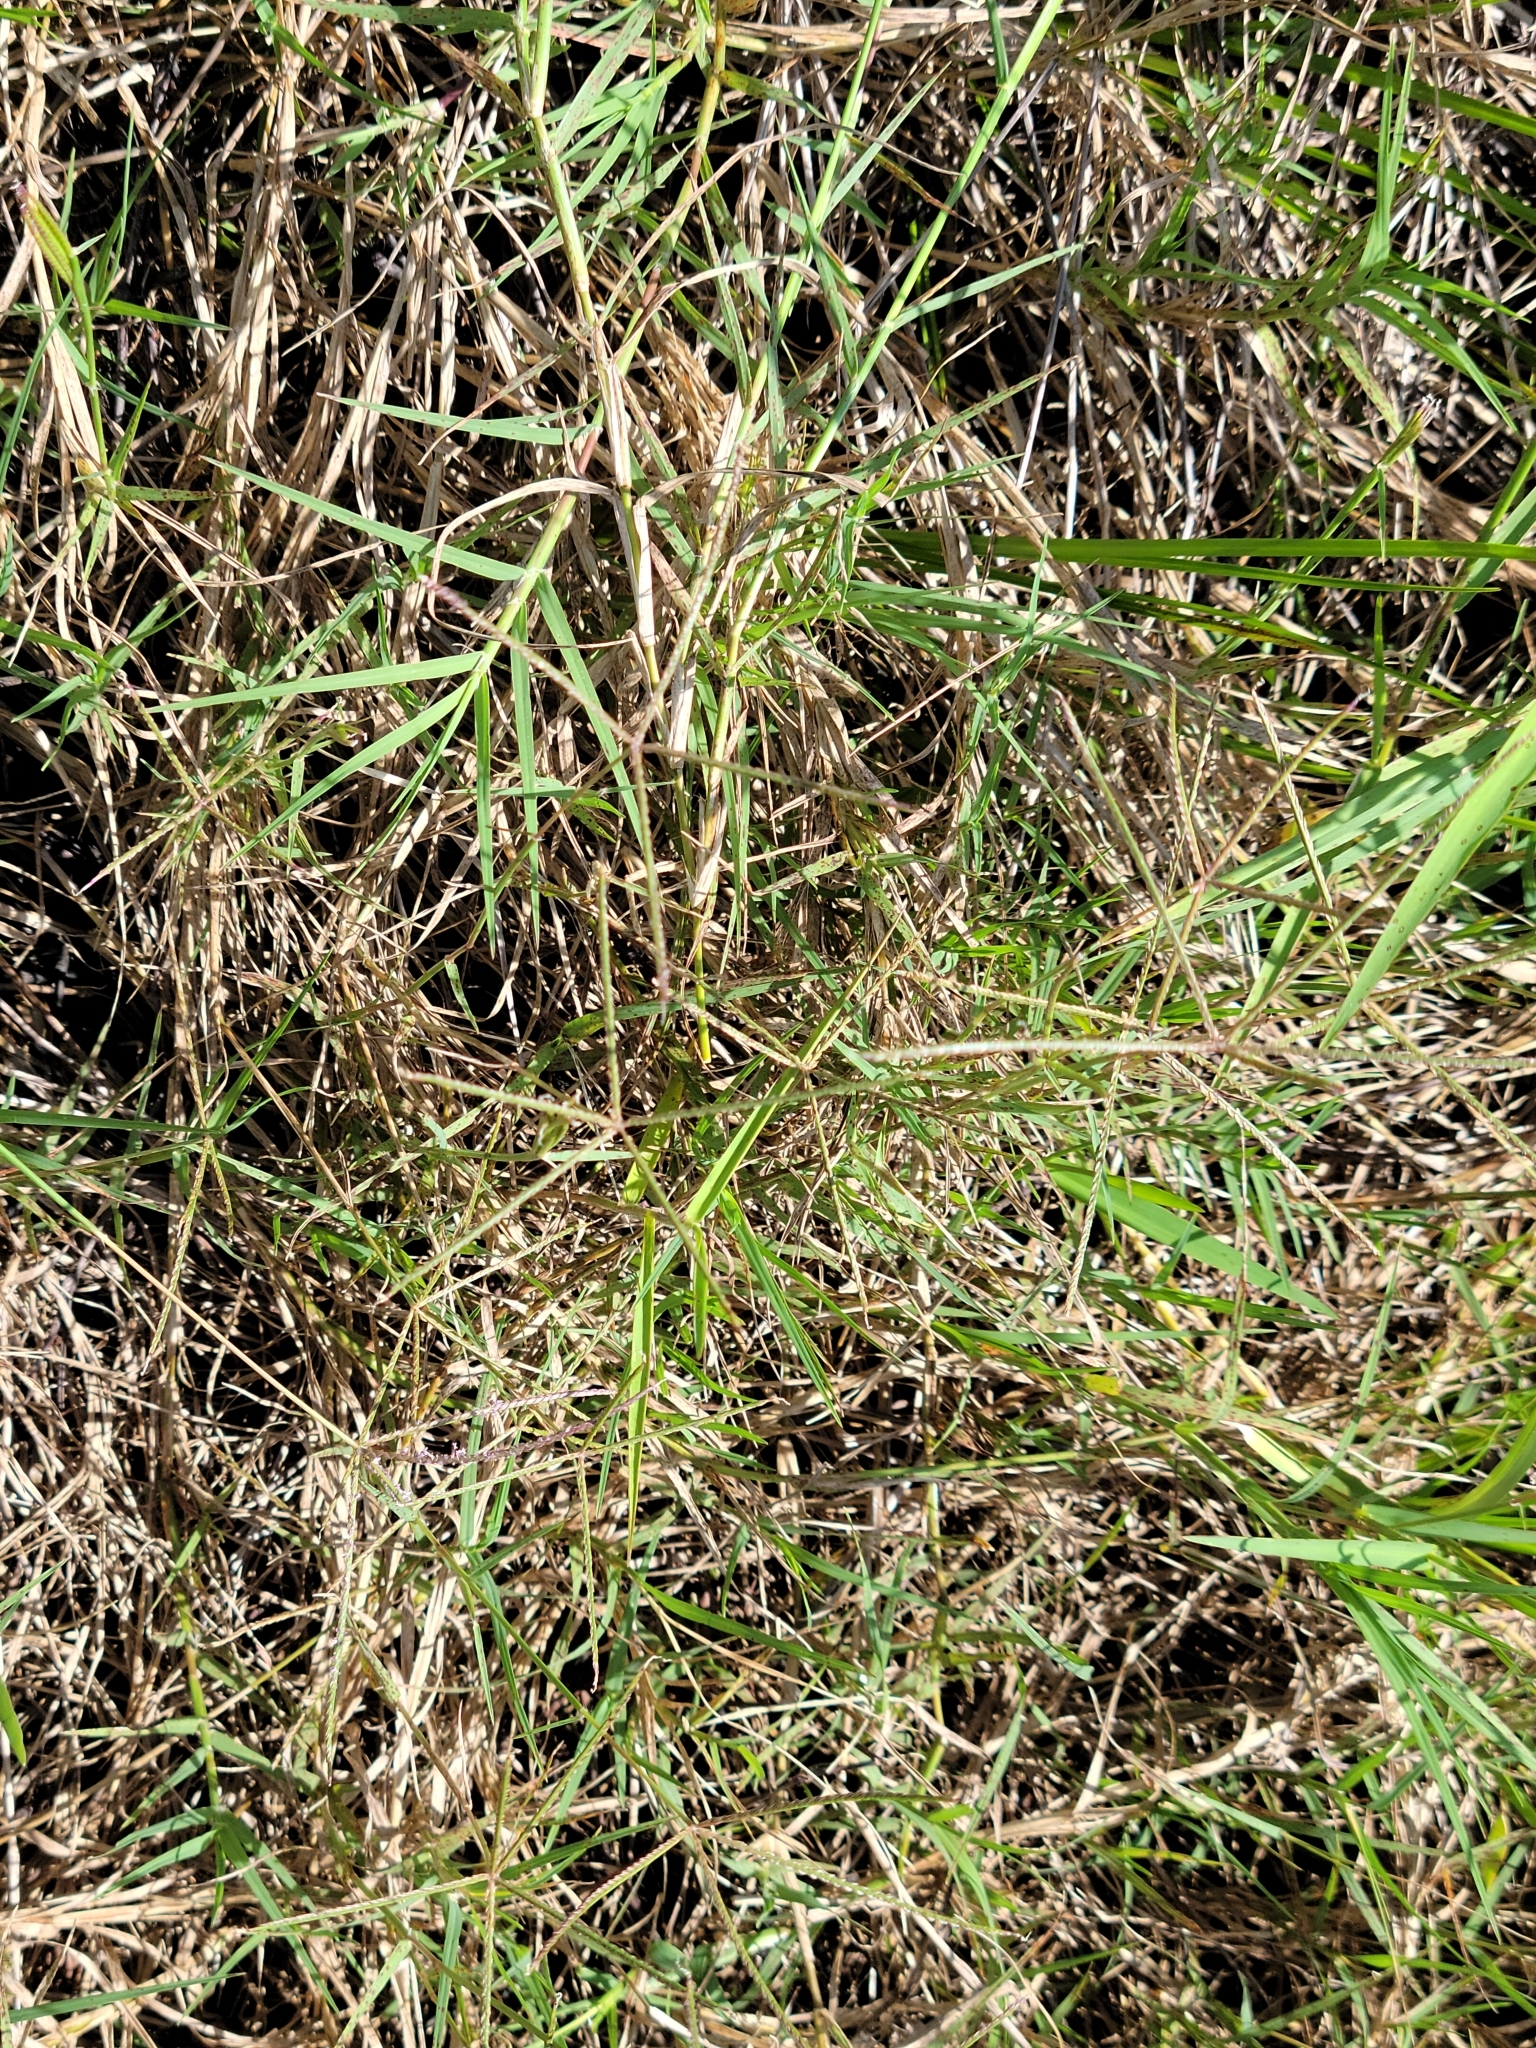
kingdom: Plantae
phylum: Tracheophyta
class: Liliopsida
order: Poales
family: Poaceae
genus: Cynodon
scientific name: Cynodon dactylon
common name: Bermuda grass
